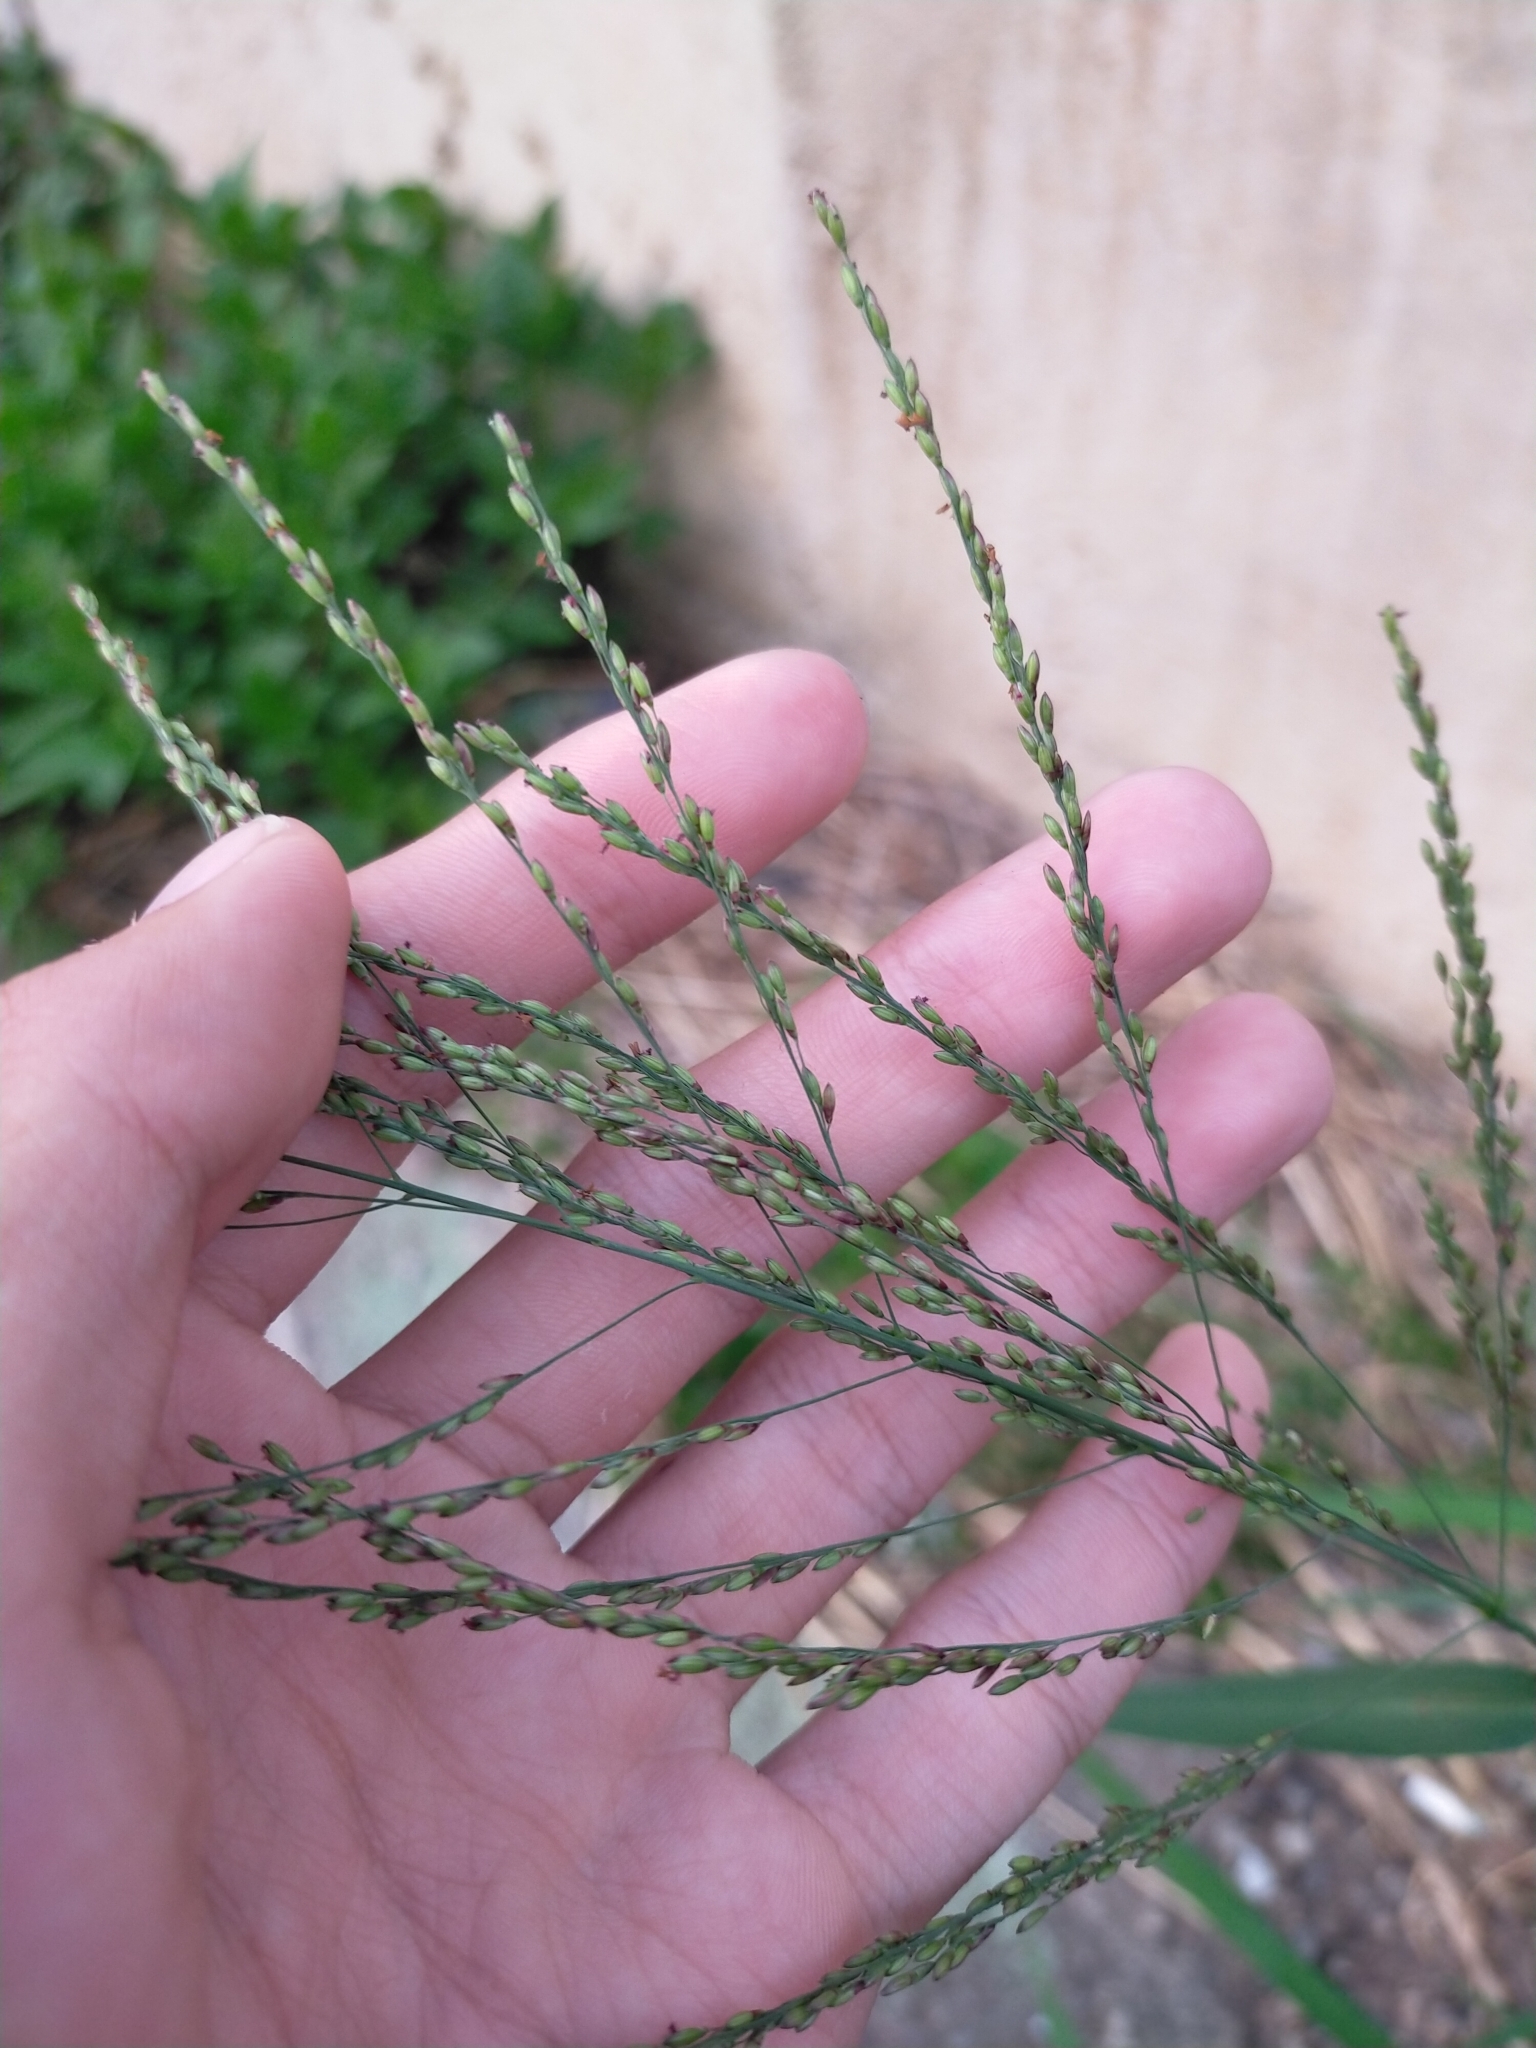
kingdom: Plantae
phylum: Tracheophyta
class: Liliopsida
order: Poales
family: Poaceae
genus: Megathyrsus
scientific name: Megathyrsus maximus
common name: Guineagrass
